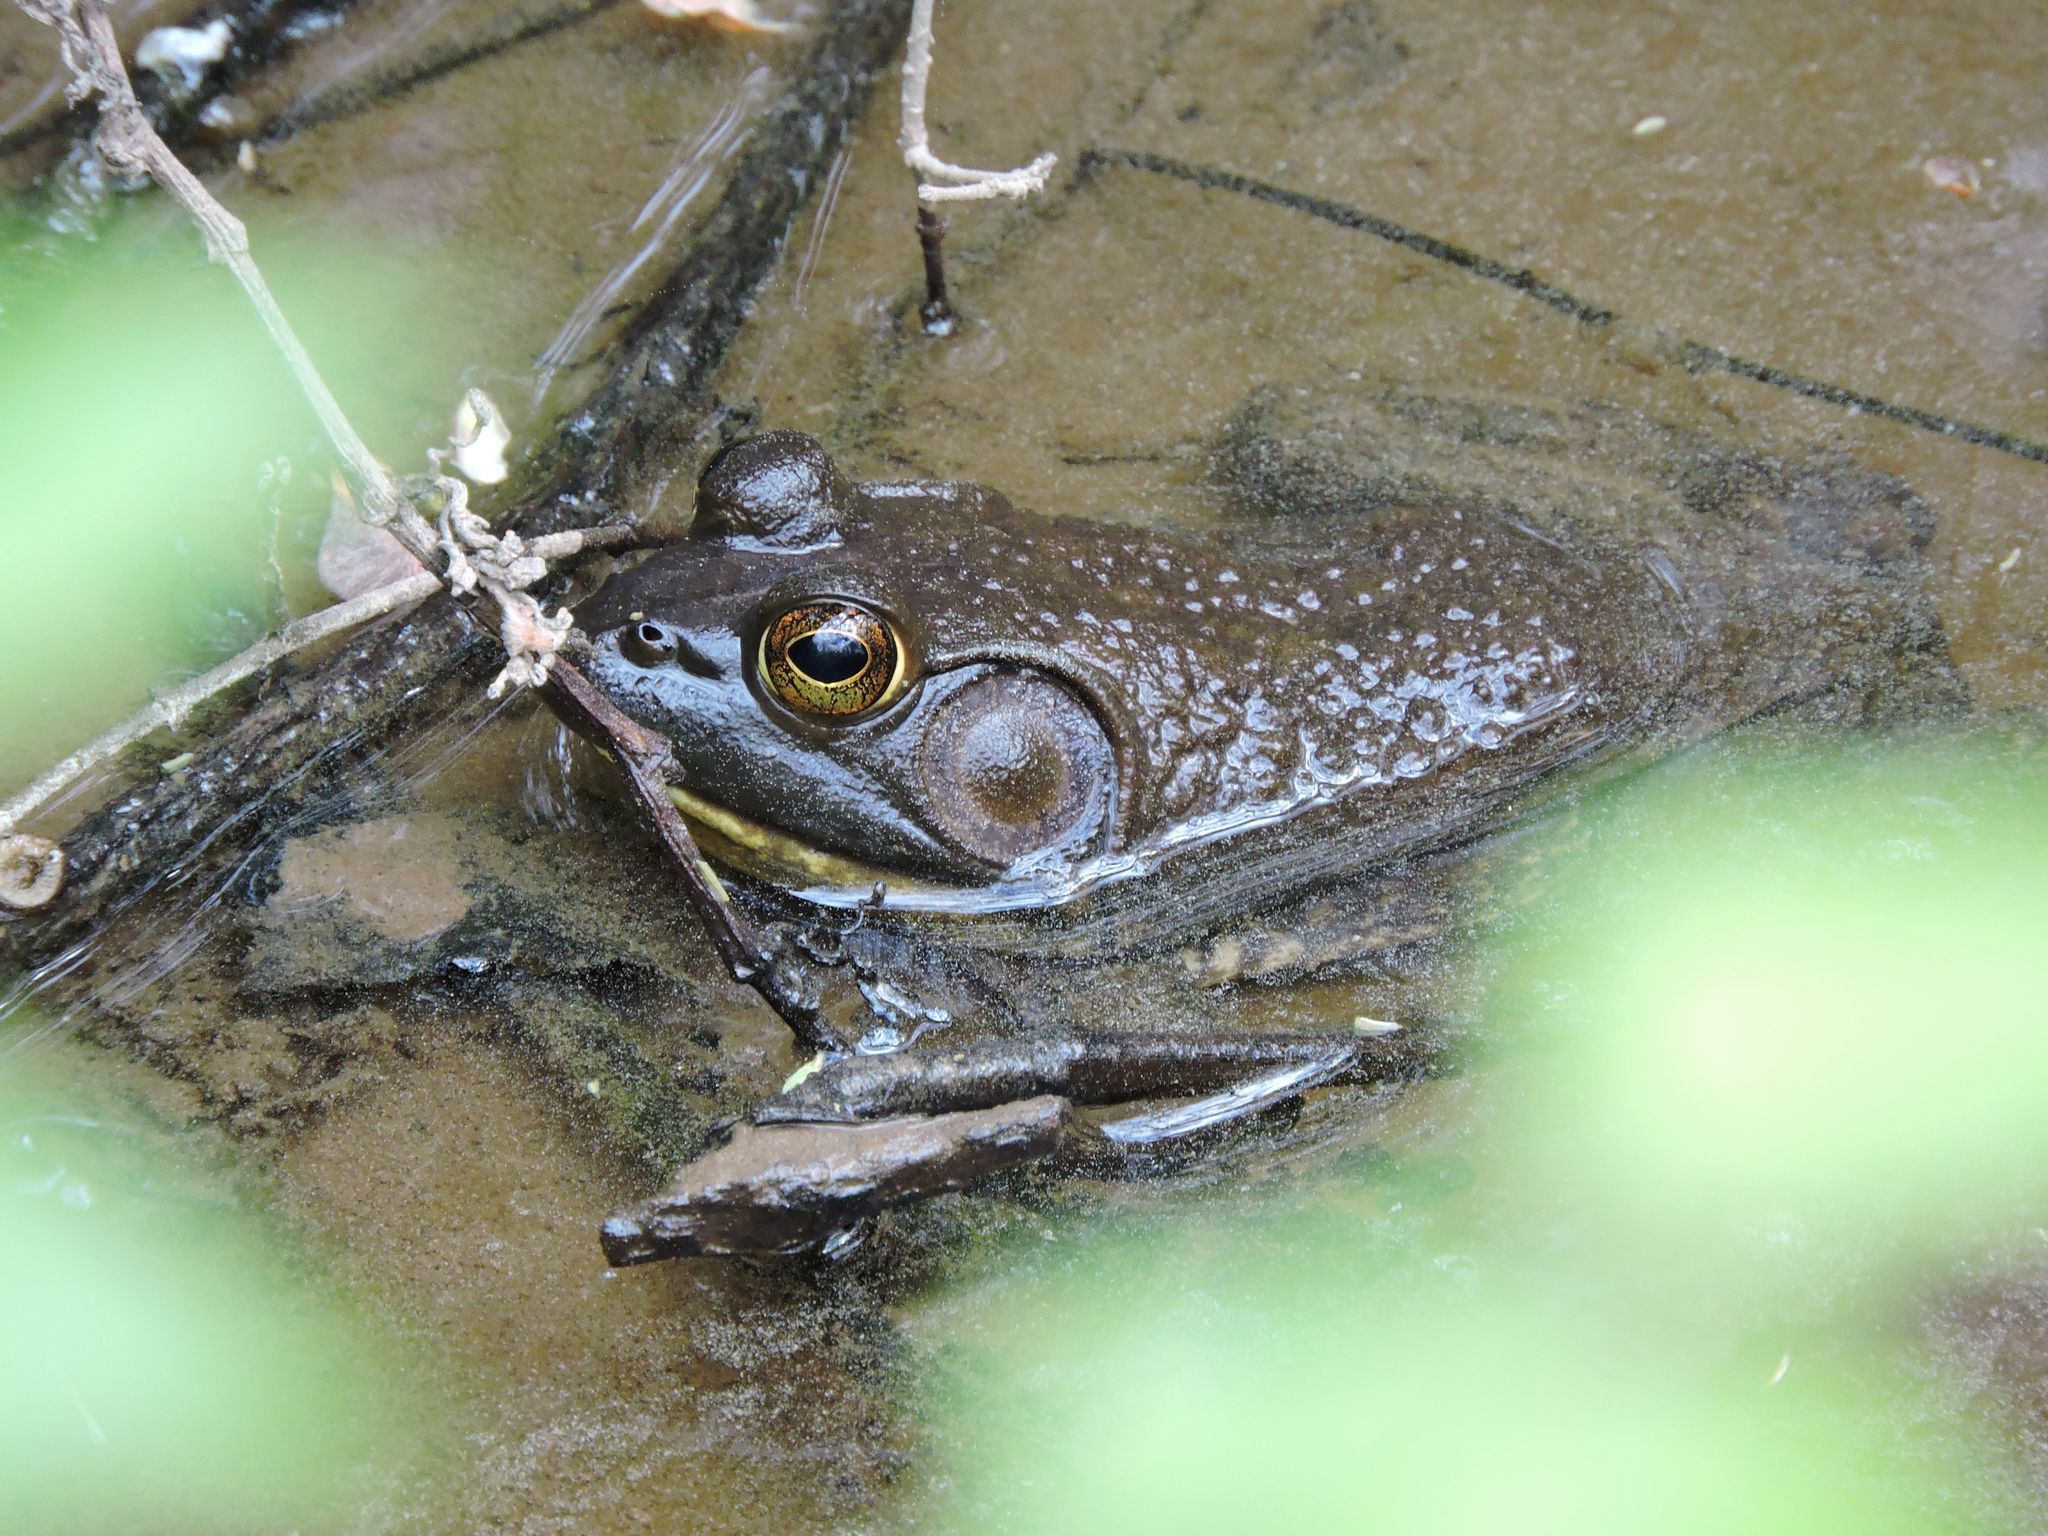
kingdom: Animalia
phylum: Chordata
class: Amphibia
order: Anura
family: Ranidae
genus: Lithobates
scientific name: Lithobates catesbeianus
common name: American bullfrog
